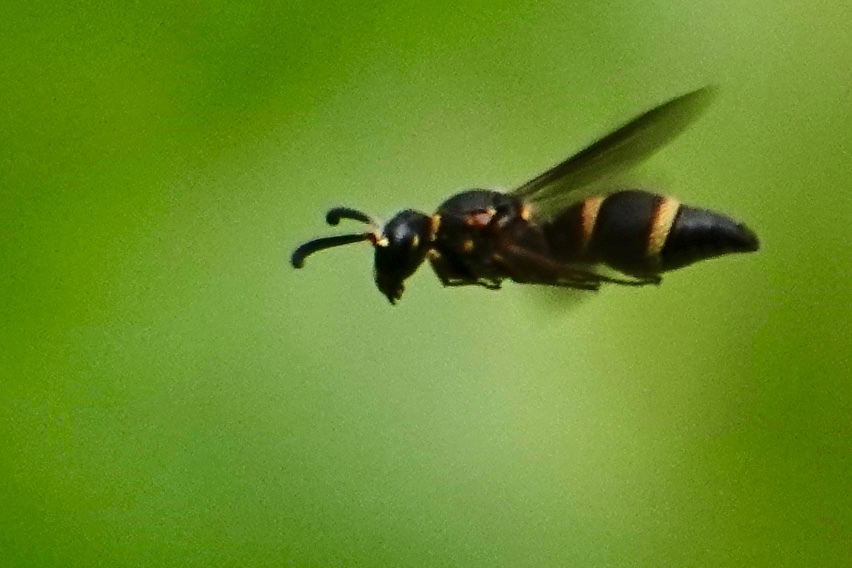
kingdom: Animalia
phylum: Arthropoda
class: Insecta
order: Hymenoptera
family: Eumenidae
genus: Parancistrocerus
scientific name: Parancistrocerus
